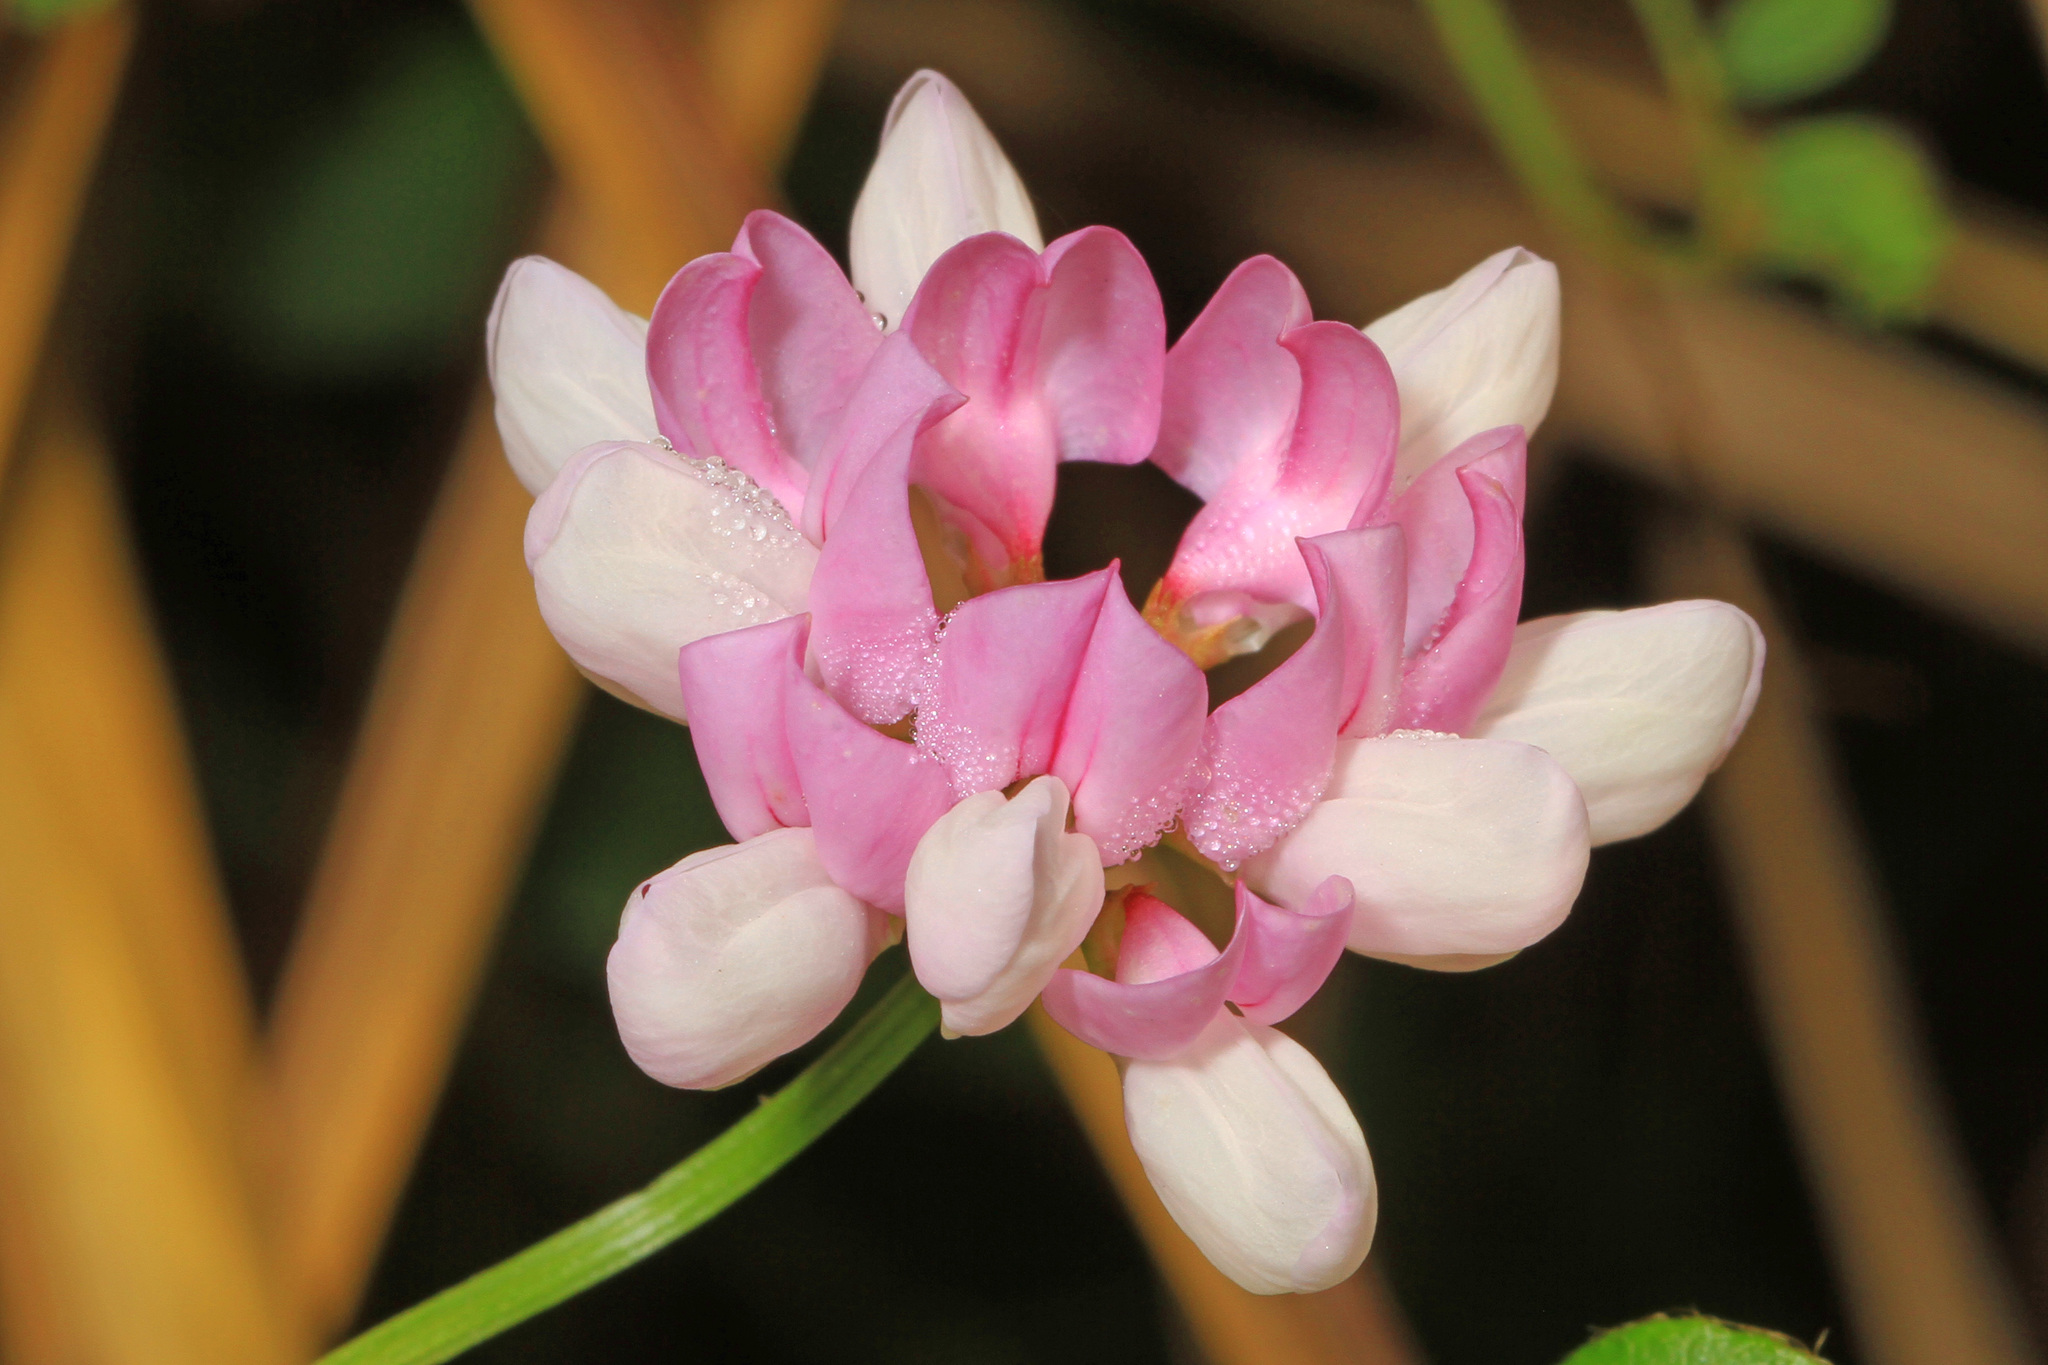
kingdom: Plantae
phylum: Tracheophyta
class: Magnoliopsida
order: Fabales
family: Fabaceae
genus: Coronilla
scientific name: Coronilla varia
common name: Crownvetch
